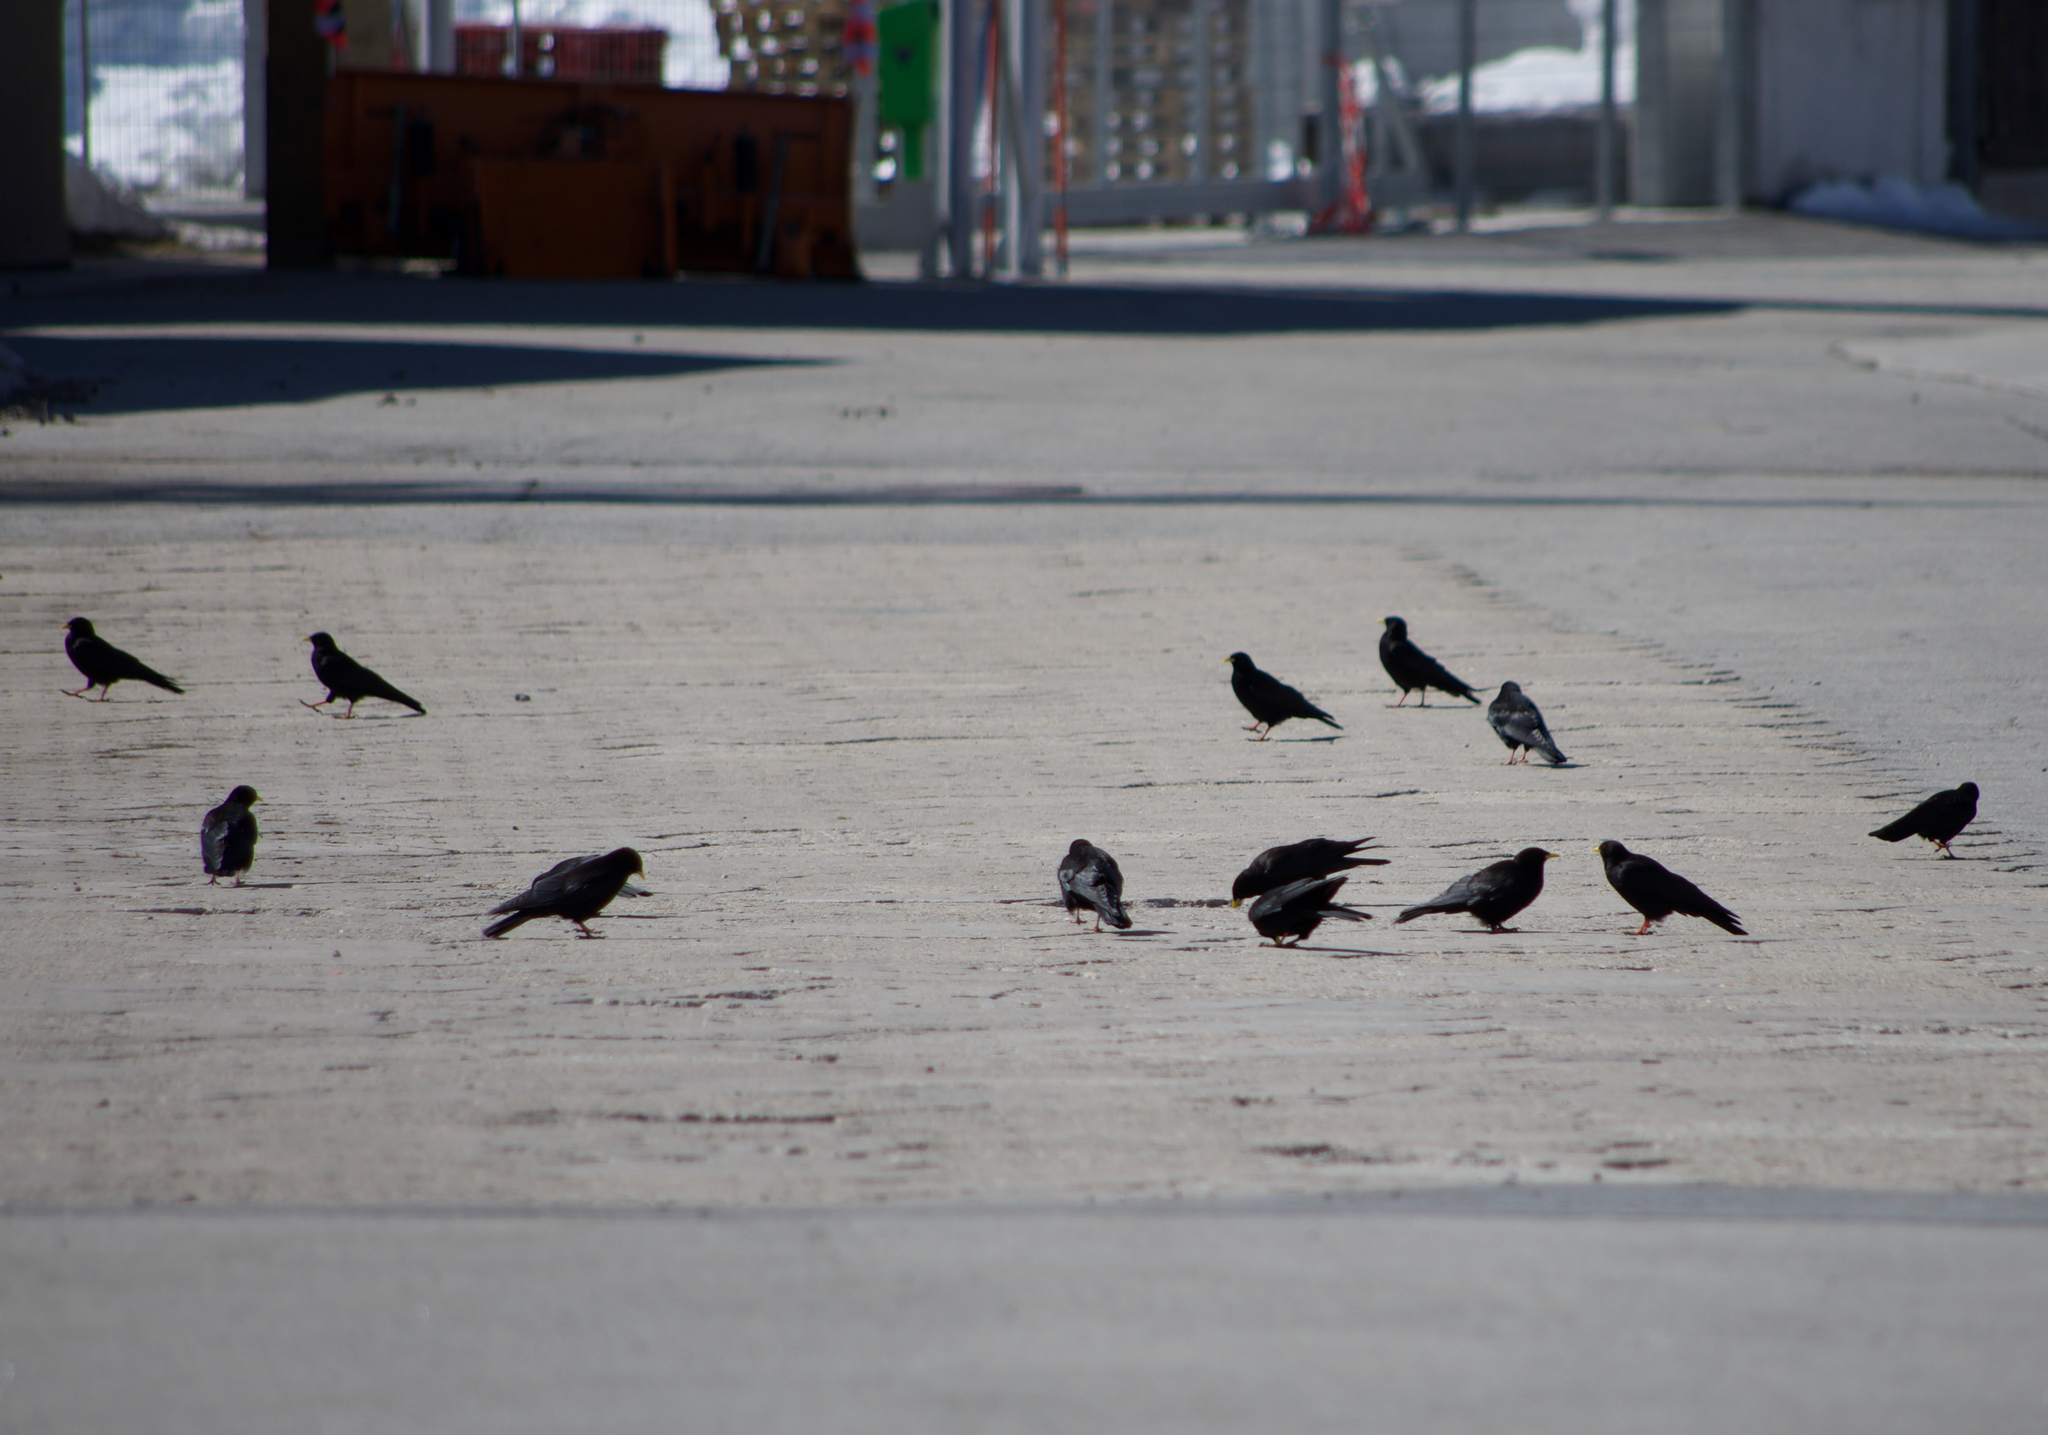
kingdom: Animalia
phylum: Chordata
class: Aves
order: Passeriformes
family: Corvidae
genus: Pyrrhocorax
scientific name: Pyrrhocorax graculus
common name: Alpine chough
